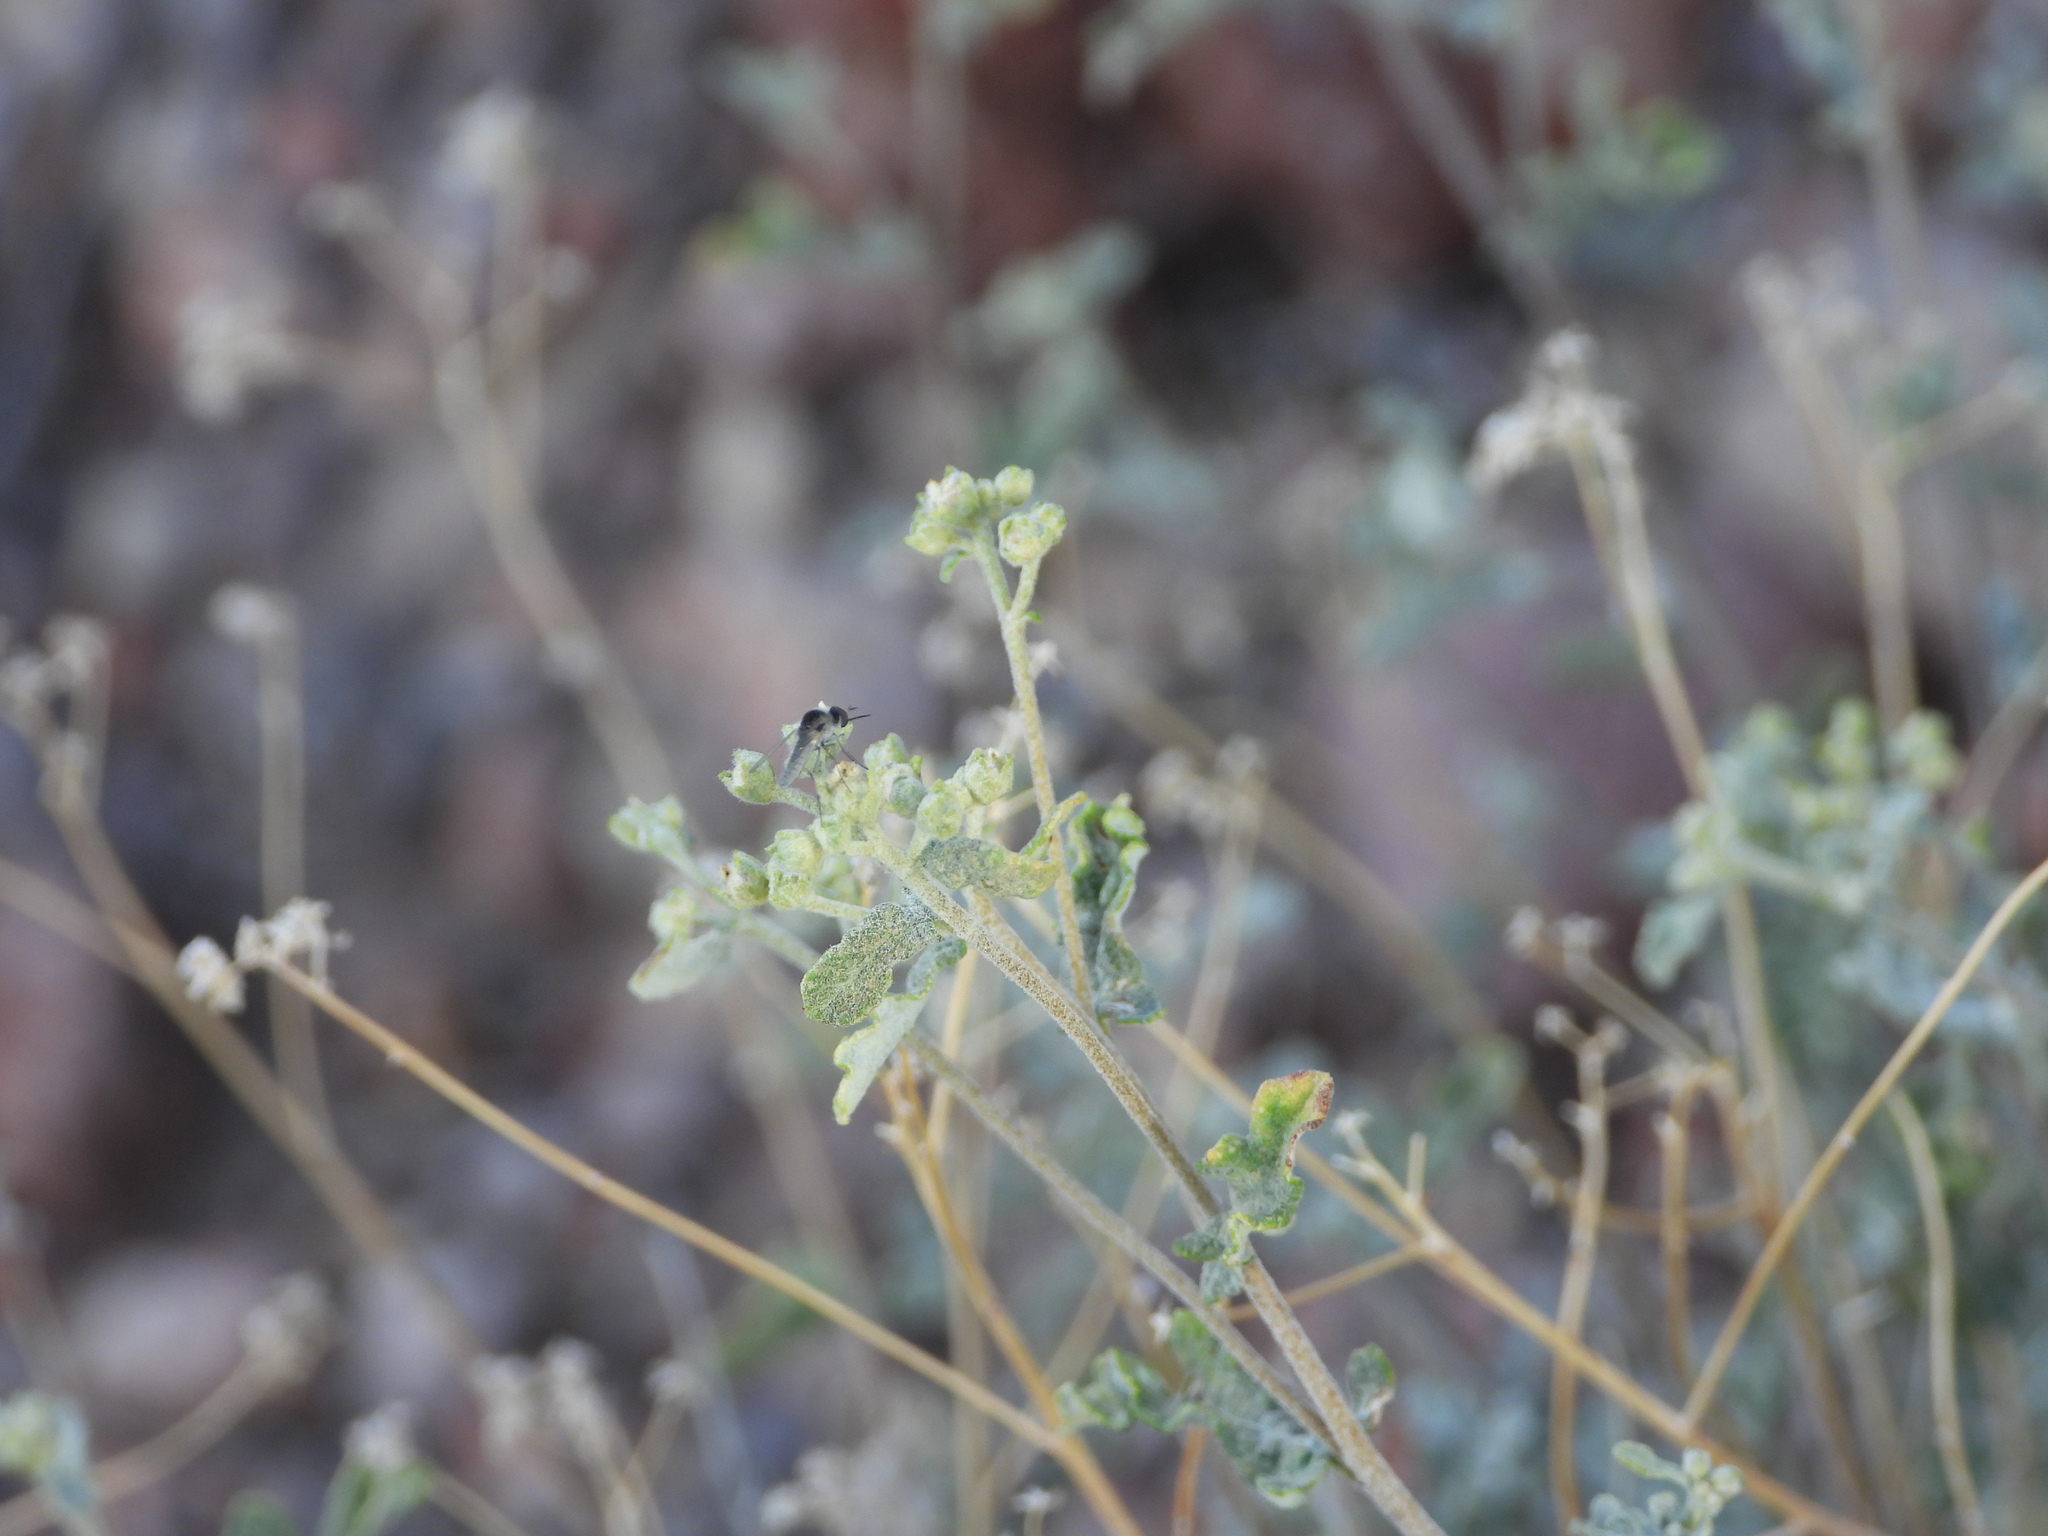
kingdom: Animalia
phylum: Arthropoda
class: Insecta
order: Diptera
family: Bombyliidae
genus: Geron
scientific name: Geron
